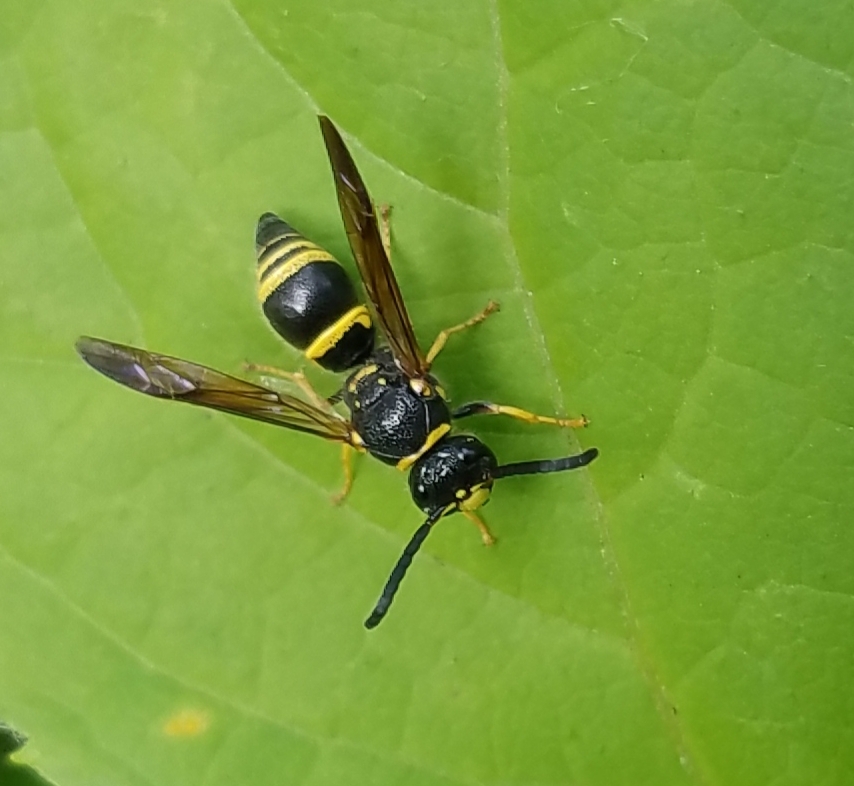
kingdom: Animalia
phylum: Arthropoda
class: Insecta
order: Hymenoptera
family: Vespidae
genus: Ancistrocerus
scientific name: Ancistrocerus campestris
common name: Smiling mason wasp
